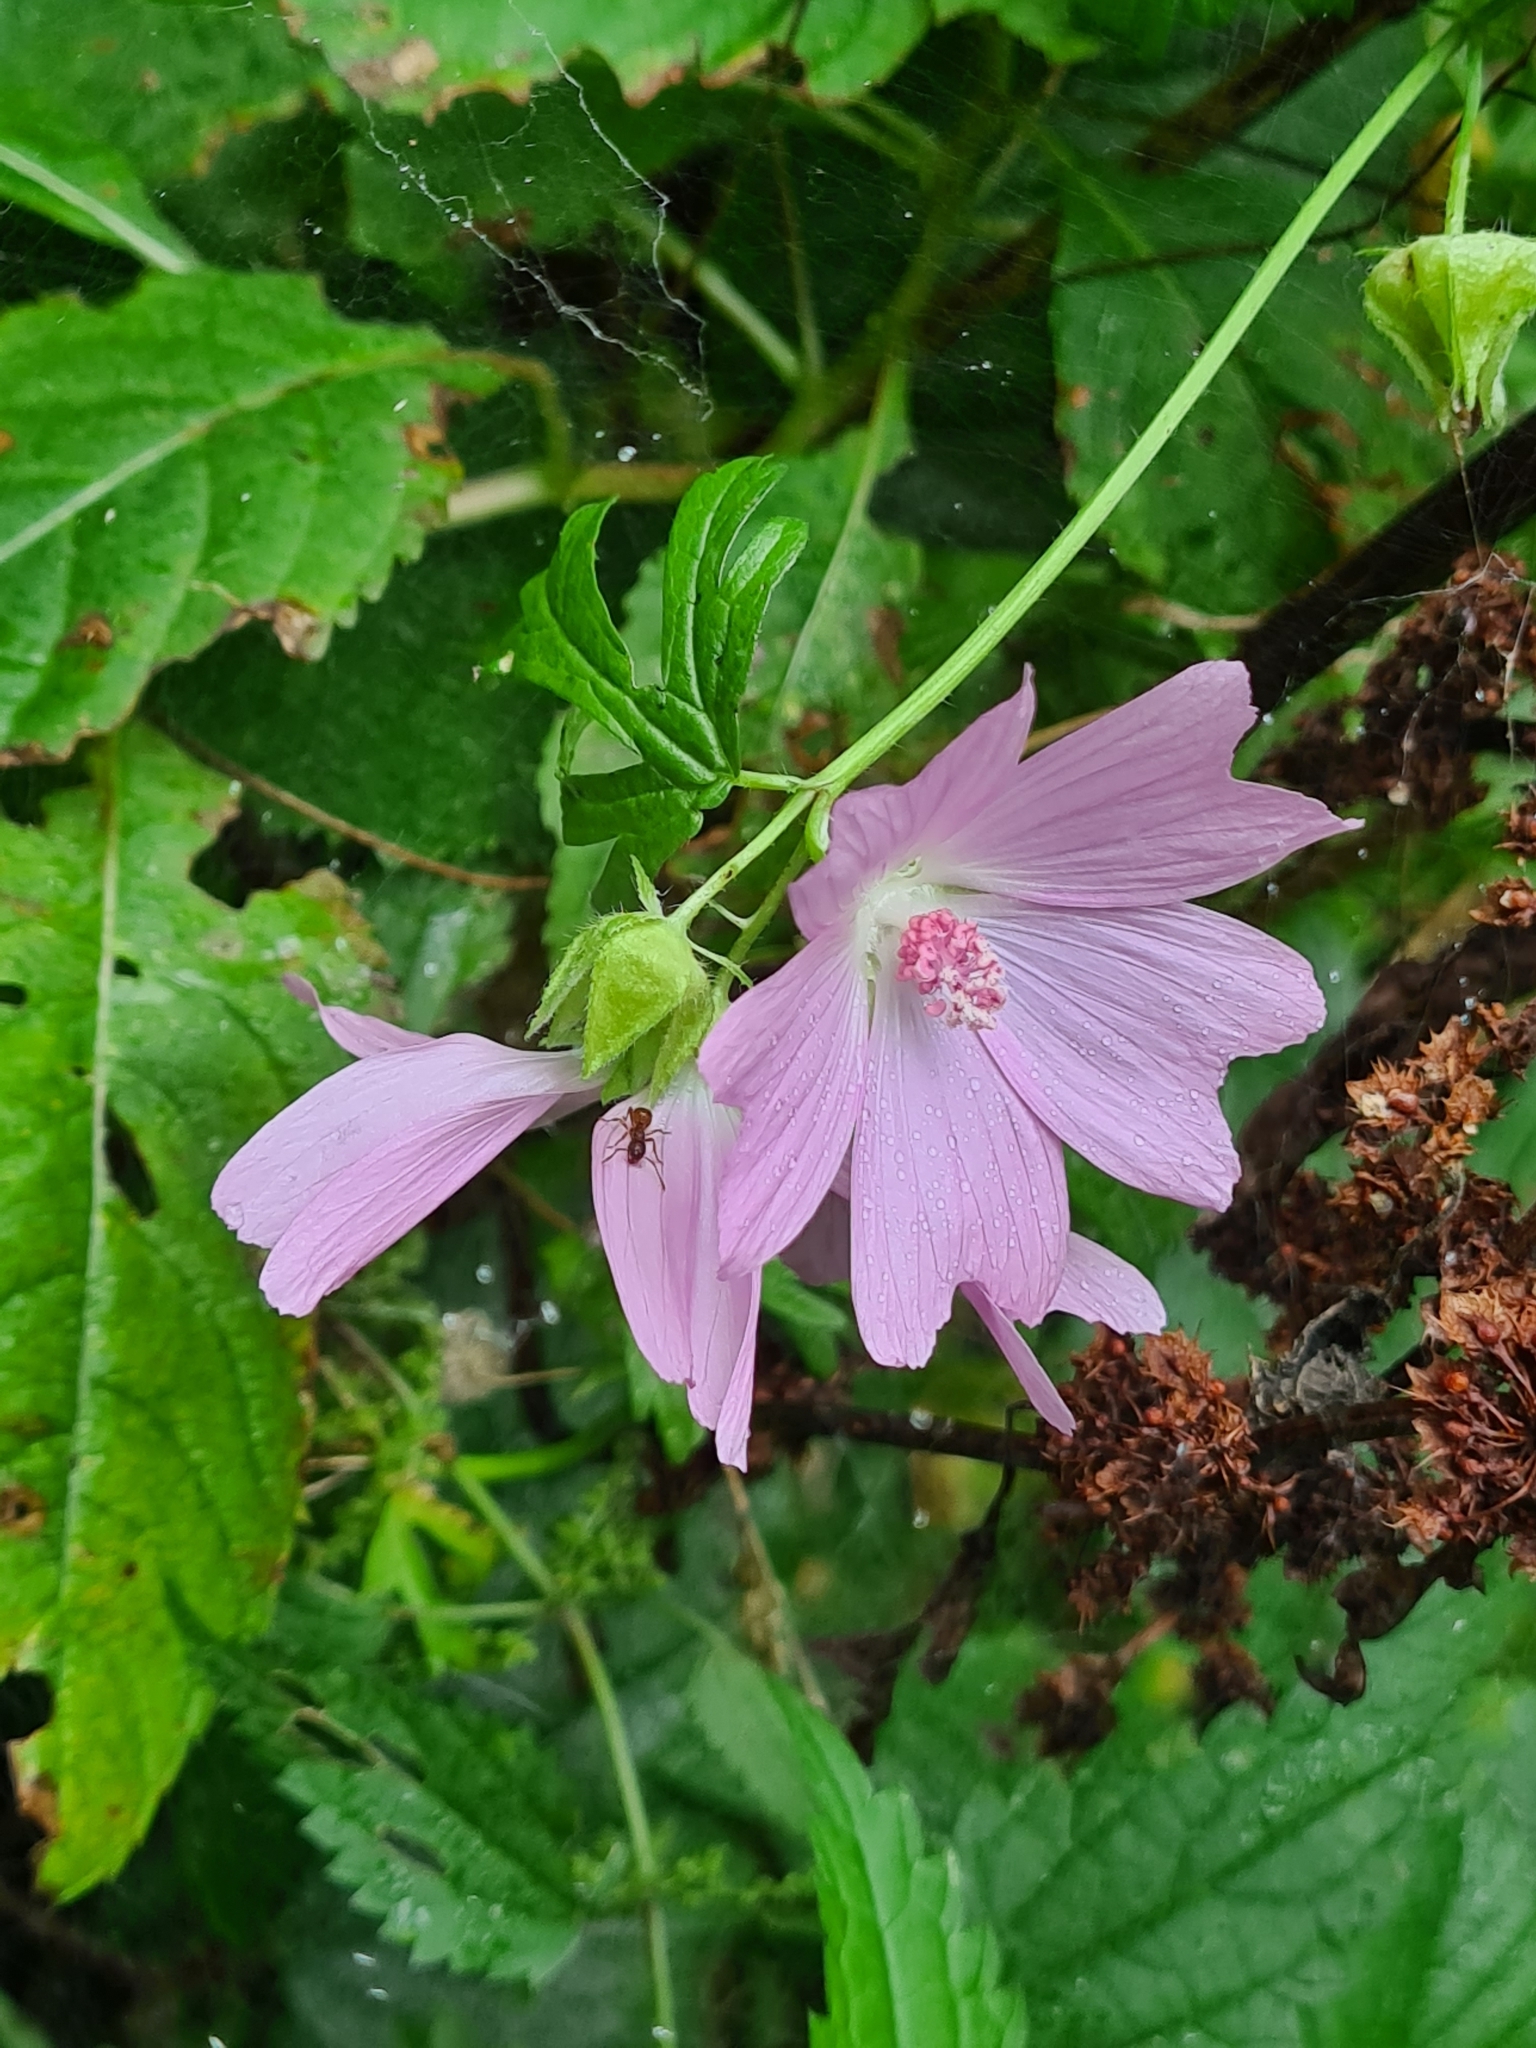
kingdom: Plantae
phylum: Tracheophyta
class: Magnoliopsida
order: Malvales
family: Malvaceae
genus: Malva
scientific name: Malva moschata
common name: Musk mallow
